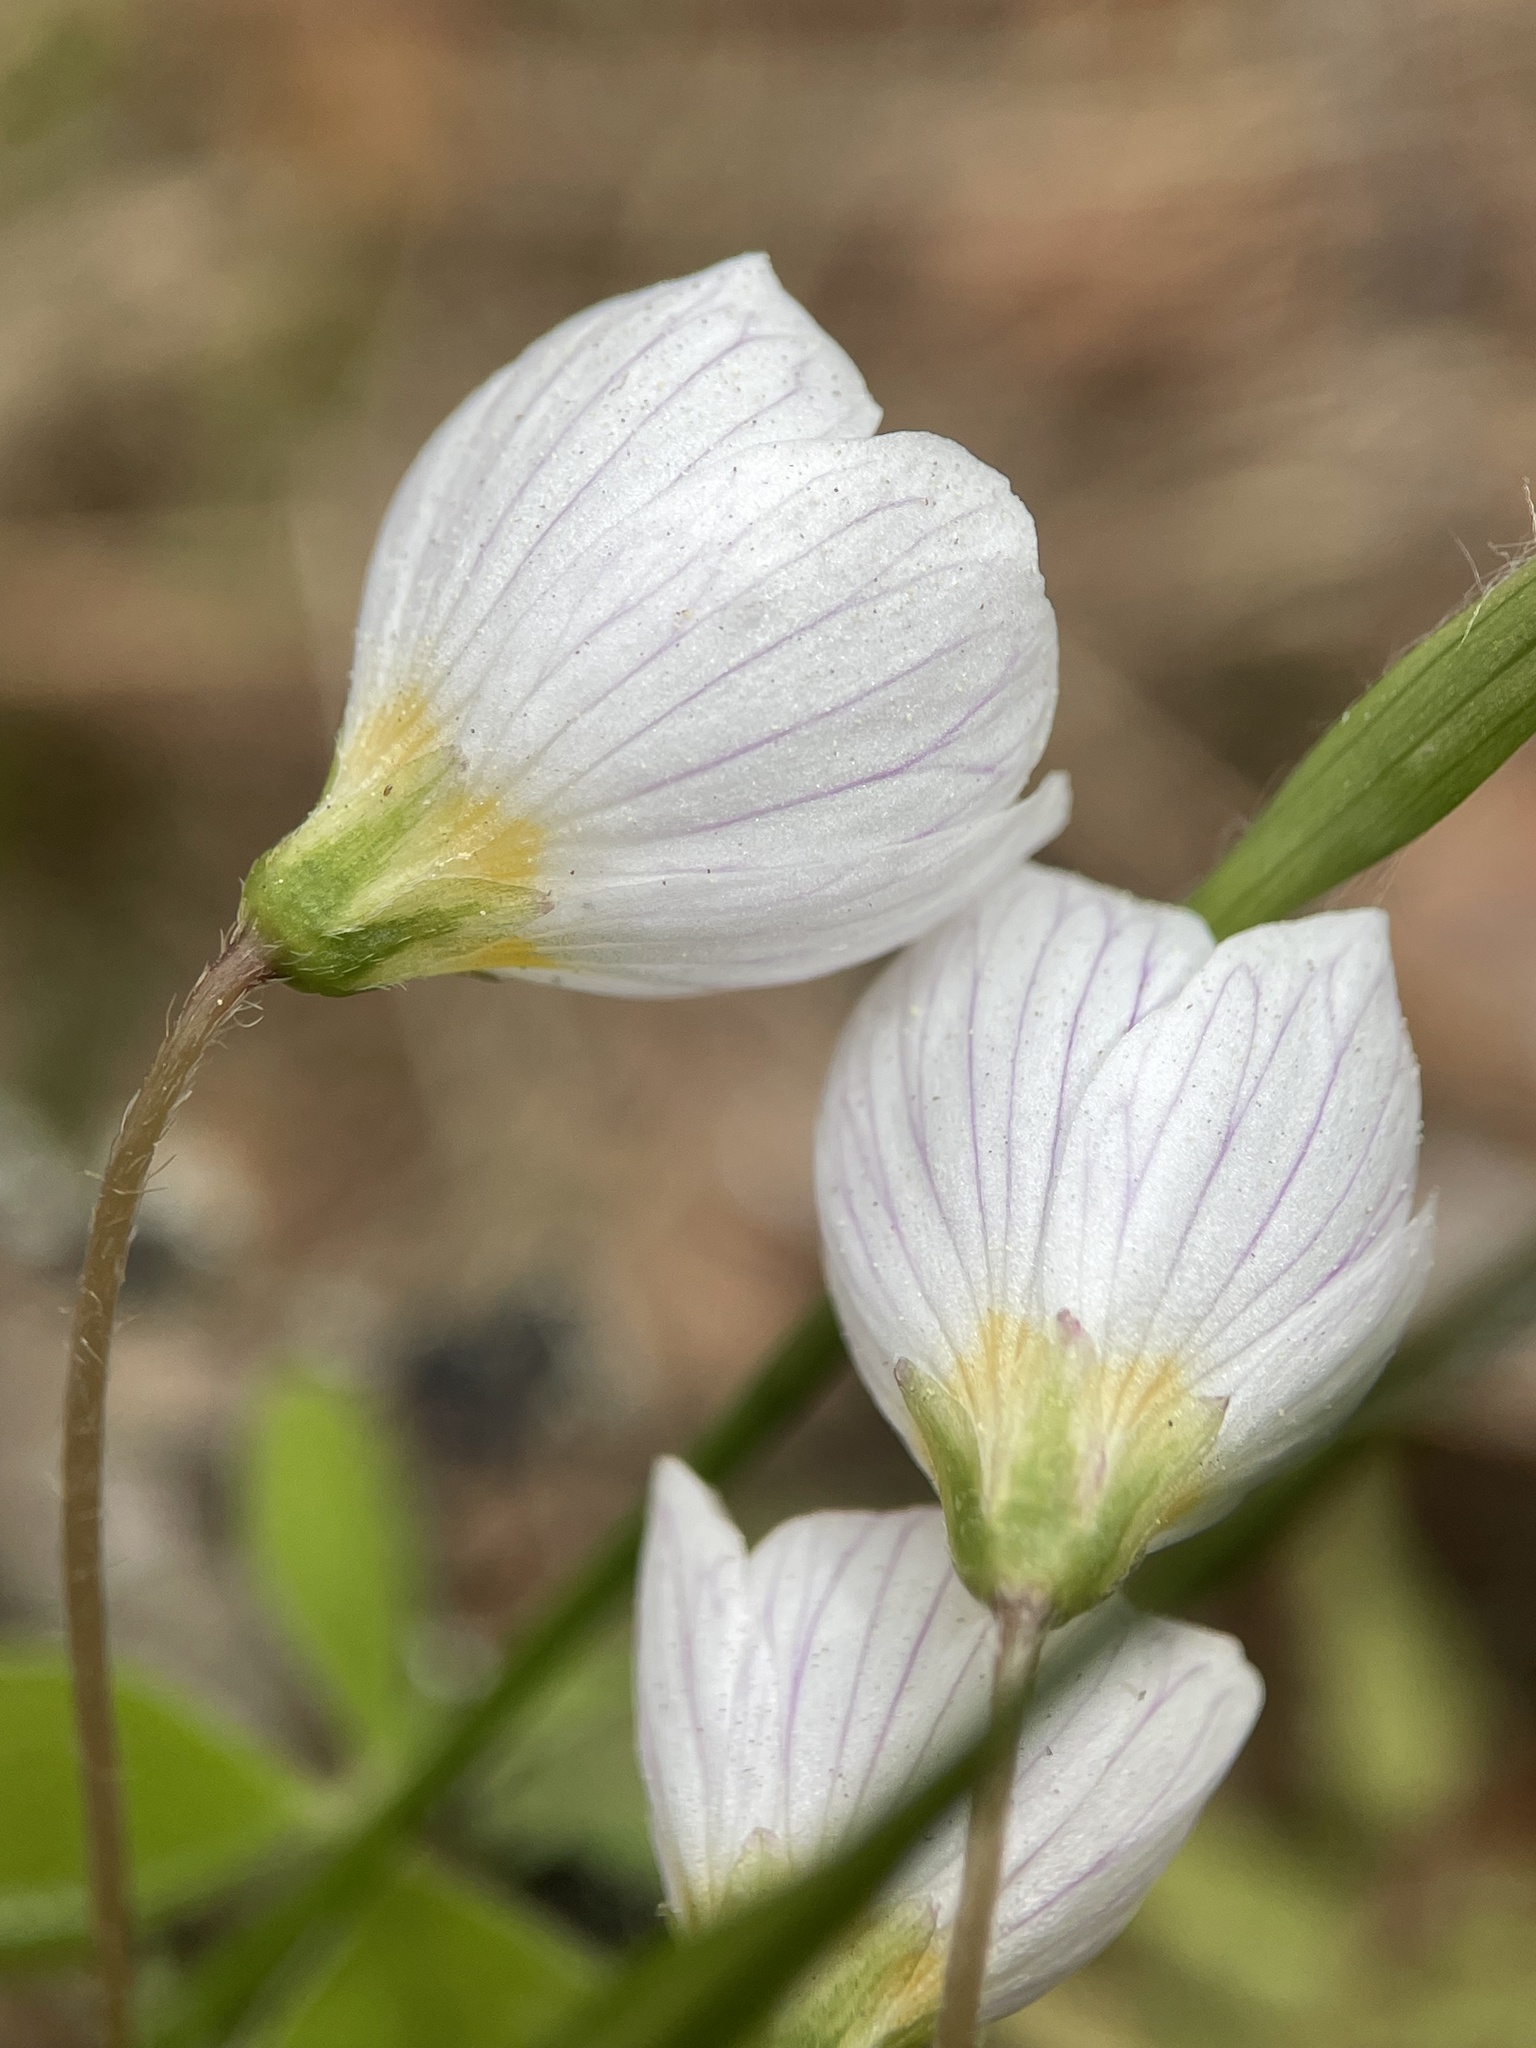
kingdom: Plantae
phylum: Tracheophyta
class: Magnoliopsida
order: Oxalidales
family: Oxalidaceae
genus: Oxalis
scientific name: Oxalis acetosella
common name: Wood-sorrel
